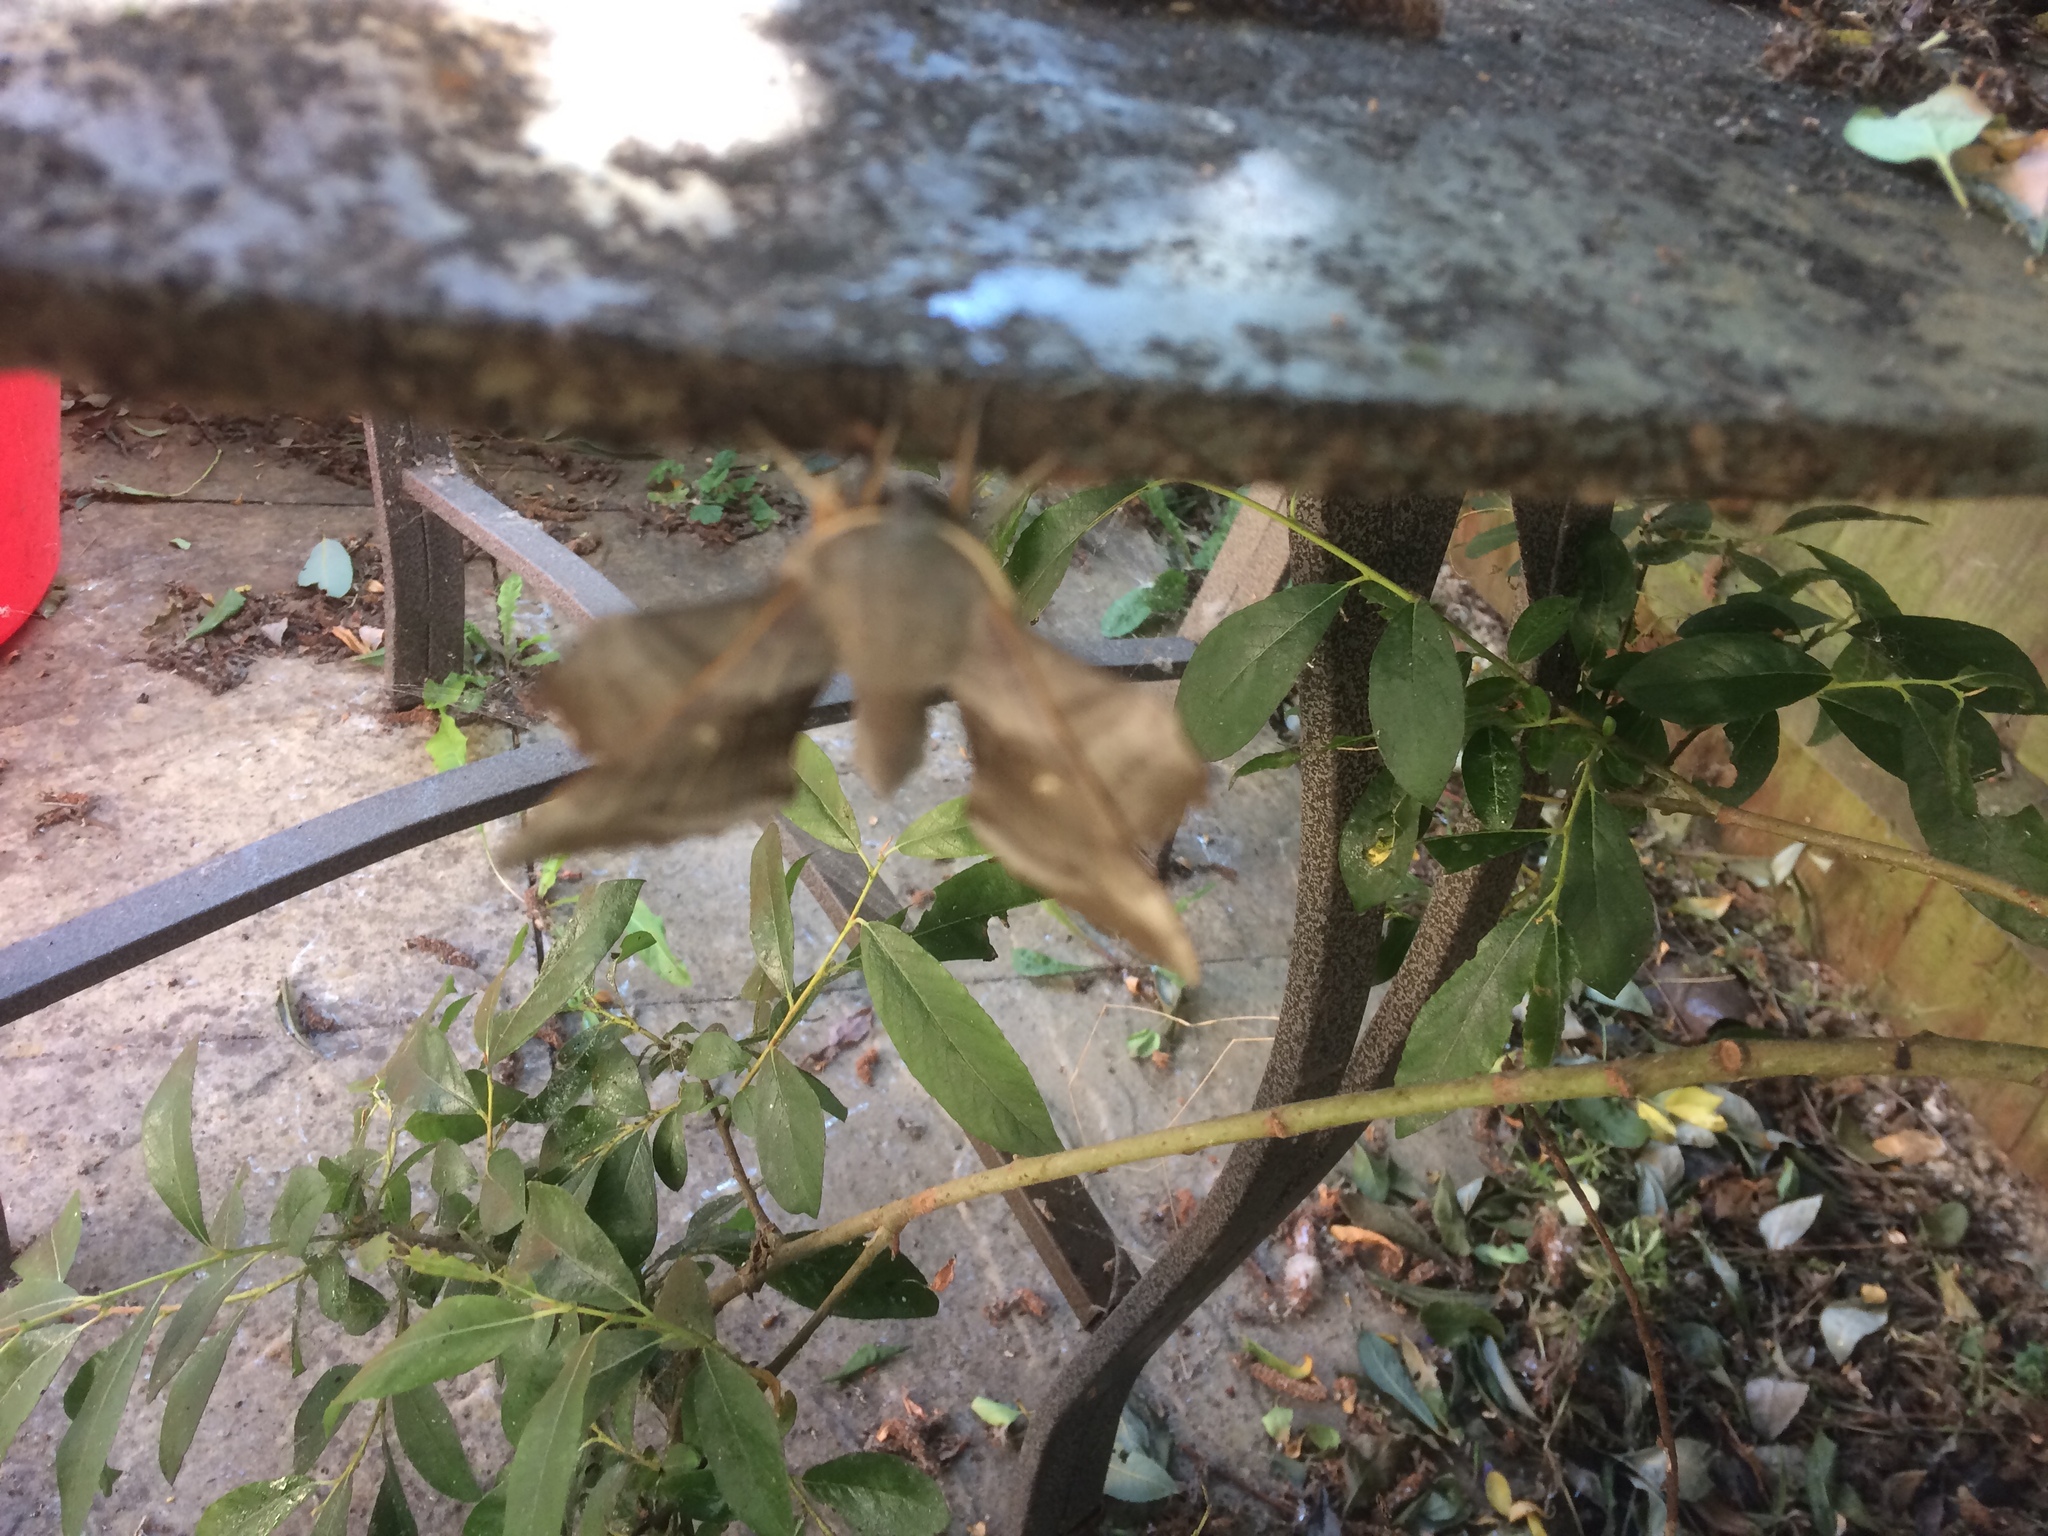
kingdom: Animalia
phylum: Arthropoda
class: Insecta
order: Lepidoptera
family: Sphingidae
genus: Laothoe
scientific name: Laothoe populi
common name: Poplar hawk-moth
